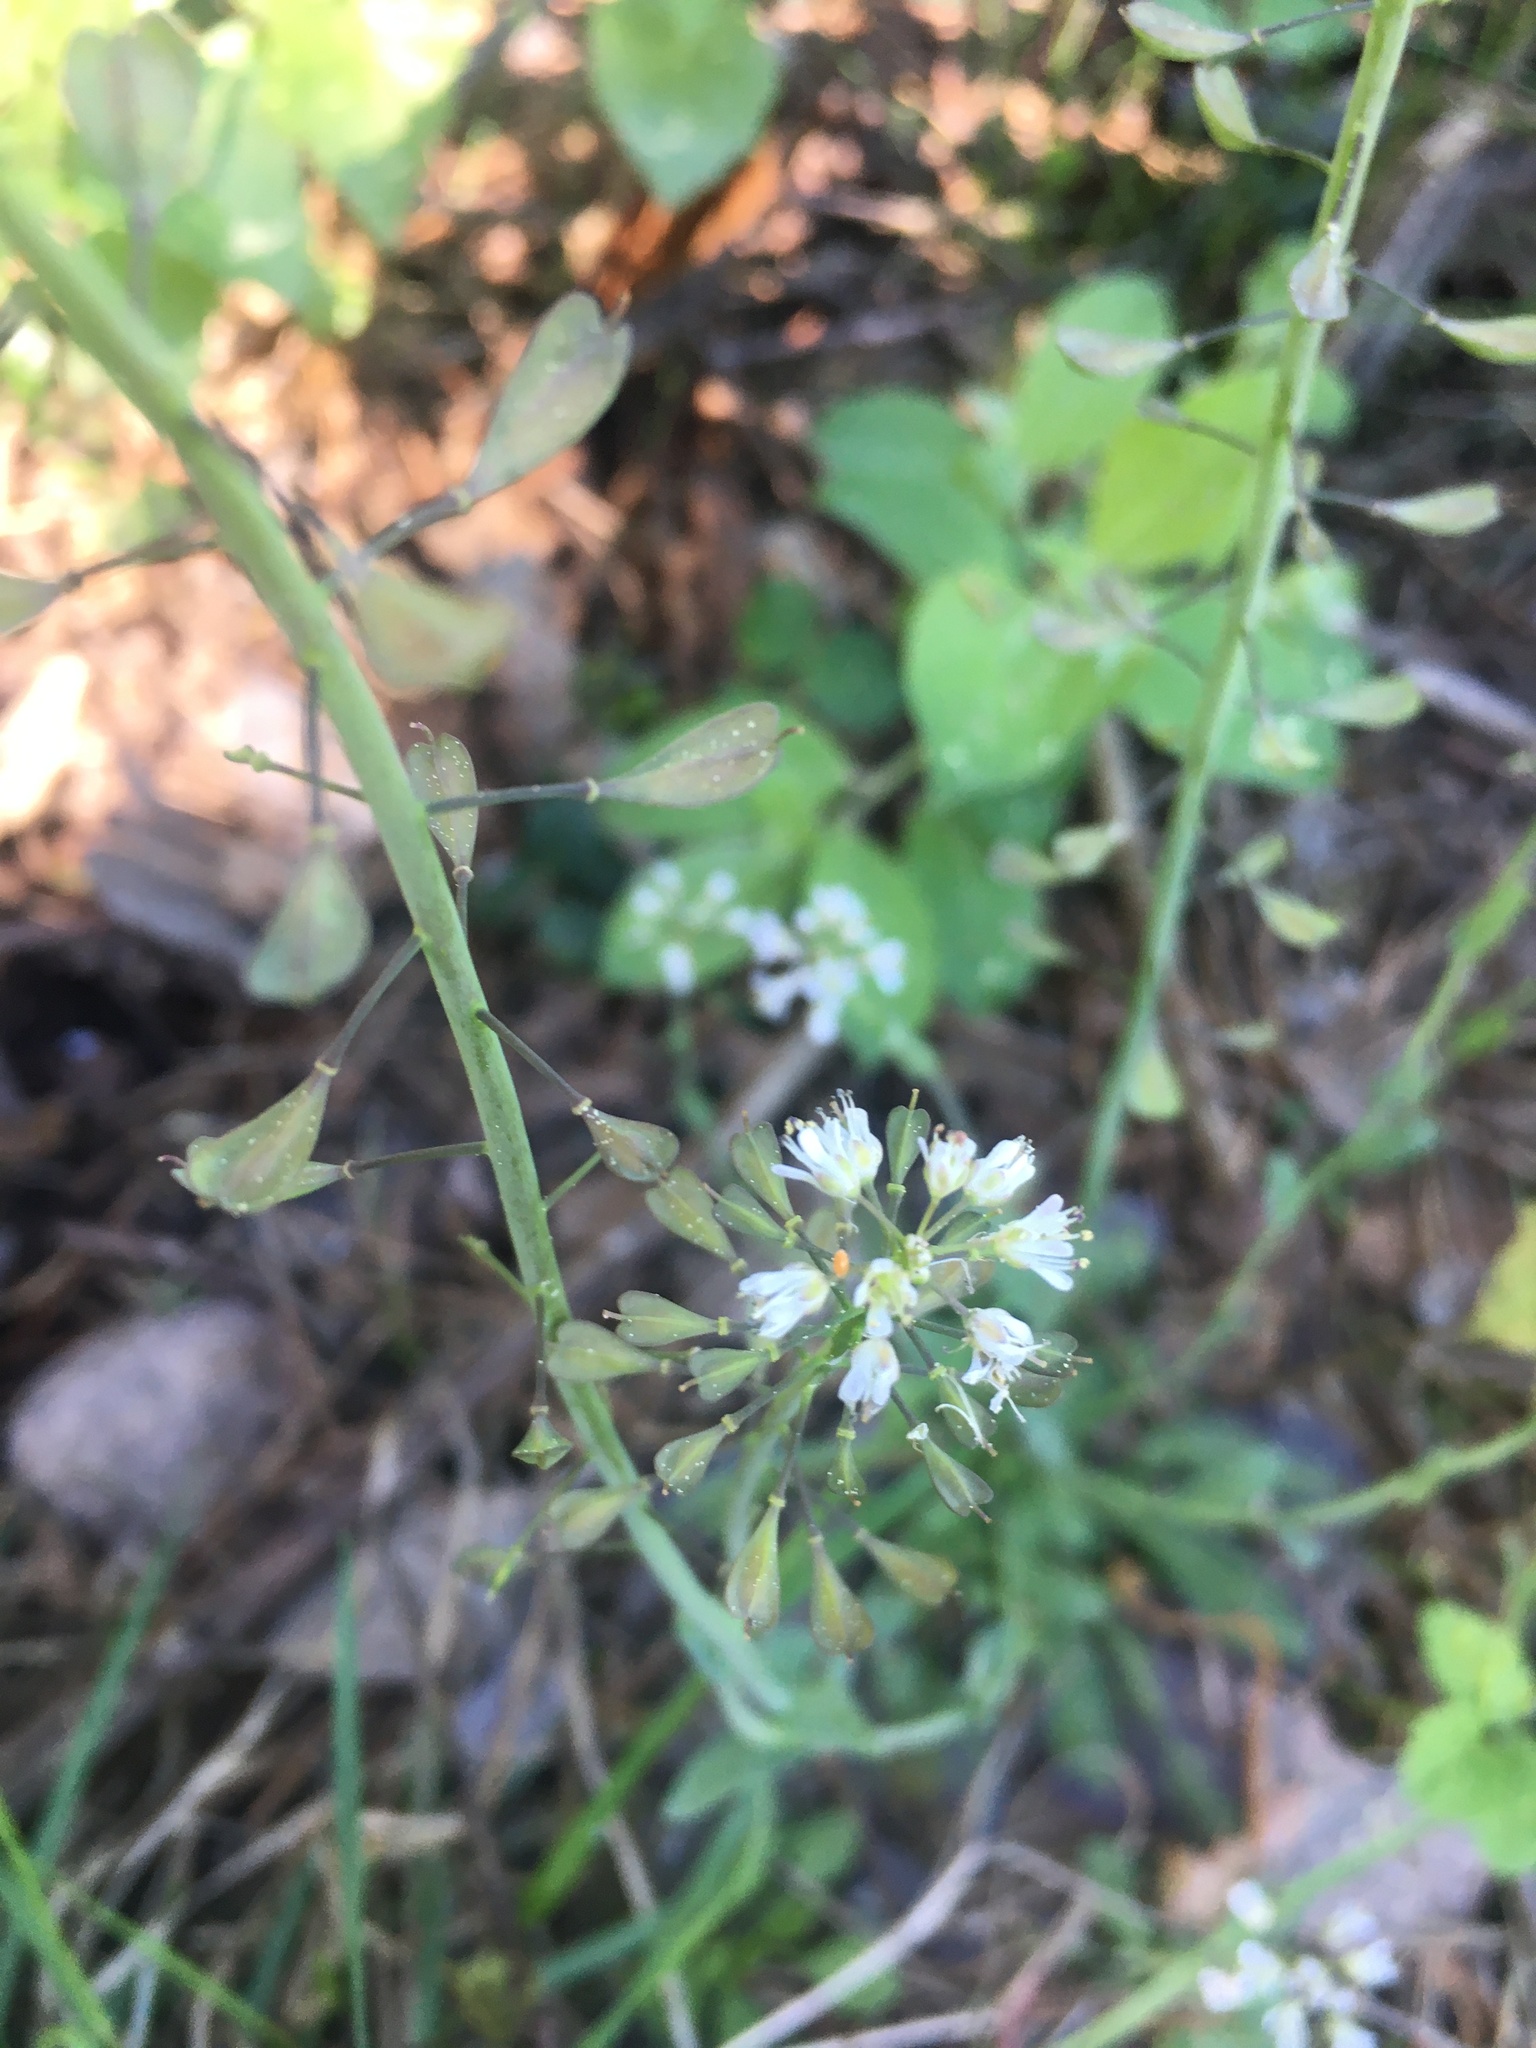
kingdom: Plantae
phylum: Tracheophyta
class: Magnoliopsida
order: Brassicales
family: Brassicaceae
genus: Capsella
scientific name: Capsella bursa-pastoris
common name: Shepherd's purse
